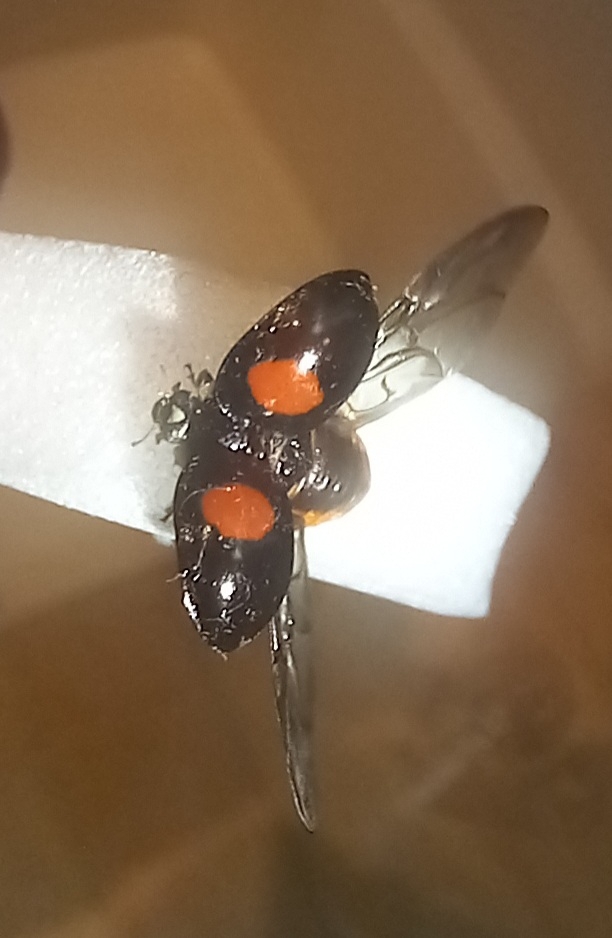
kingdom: Animalia
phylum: Arthropoda
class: Insecta
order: Coleoptera
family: Coccinellidae
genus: Harmonia
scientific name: Harmonia axyridis
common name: Harlequin ladybird
